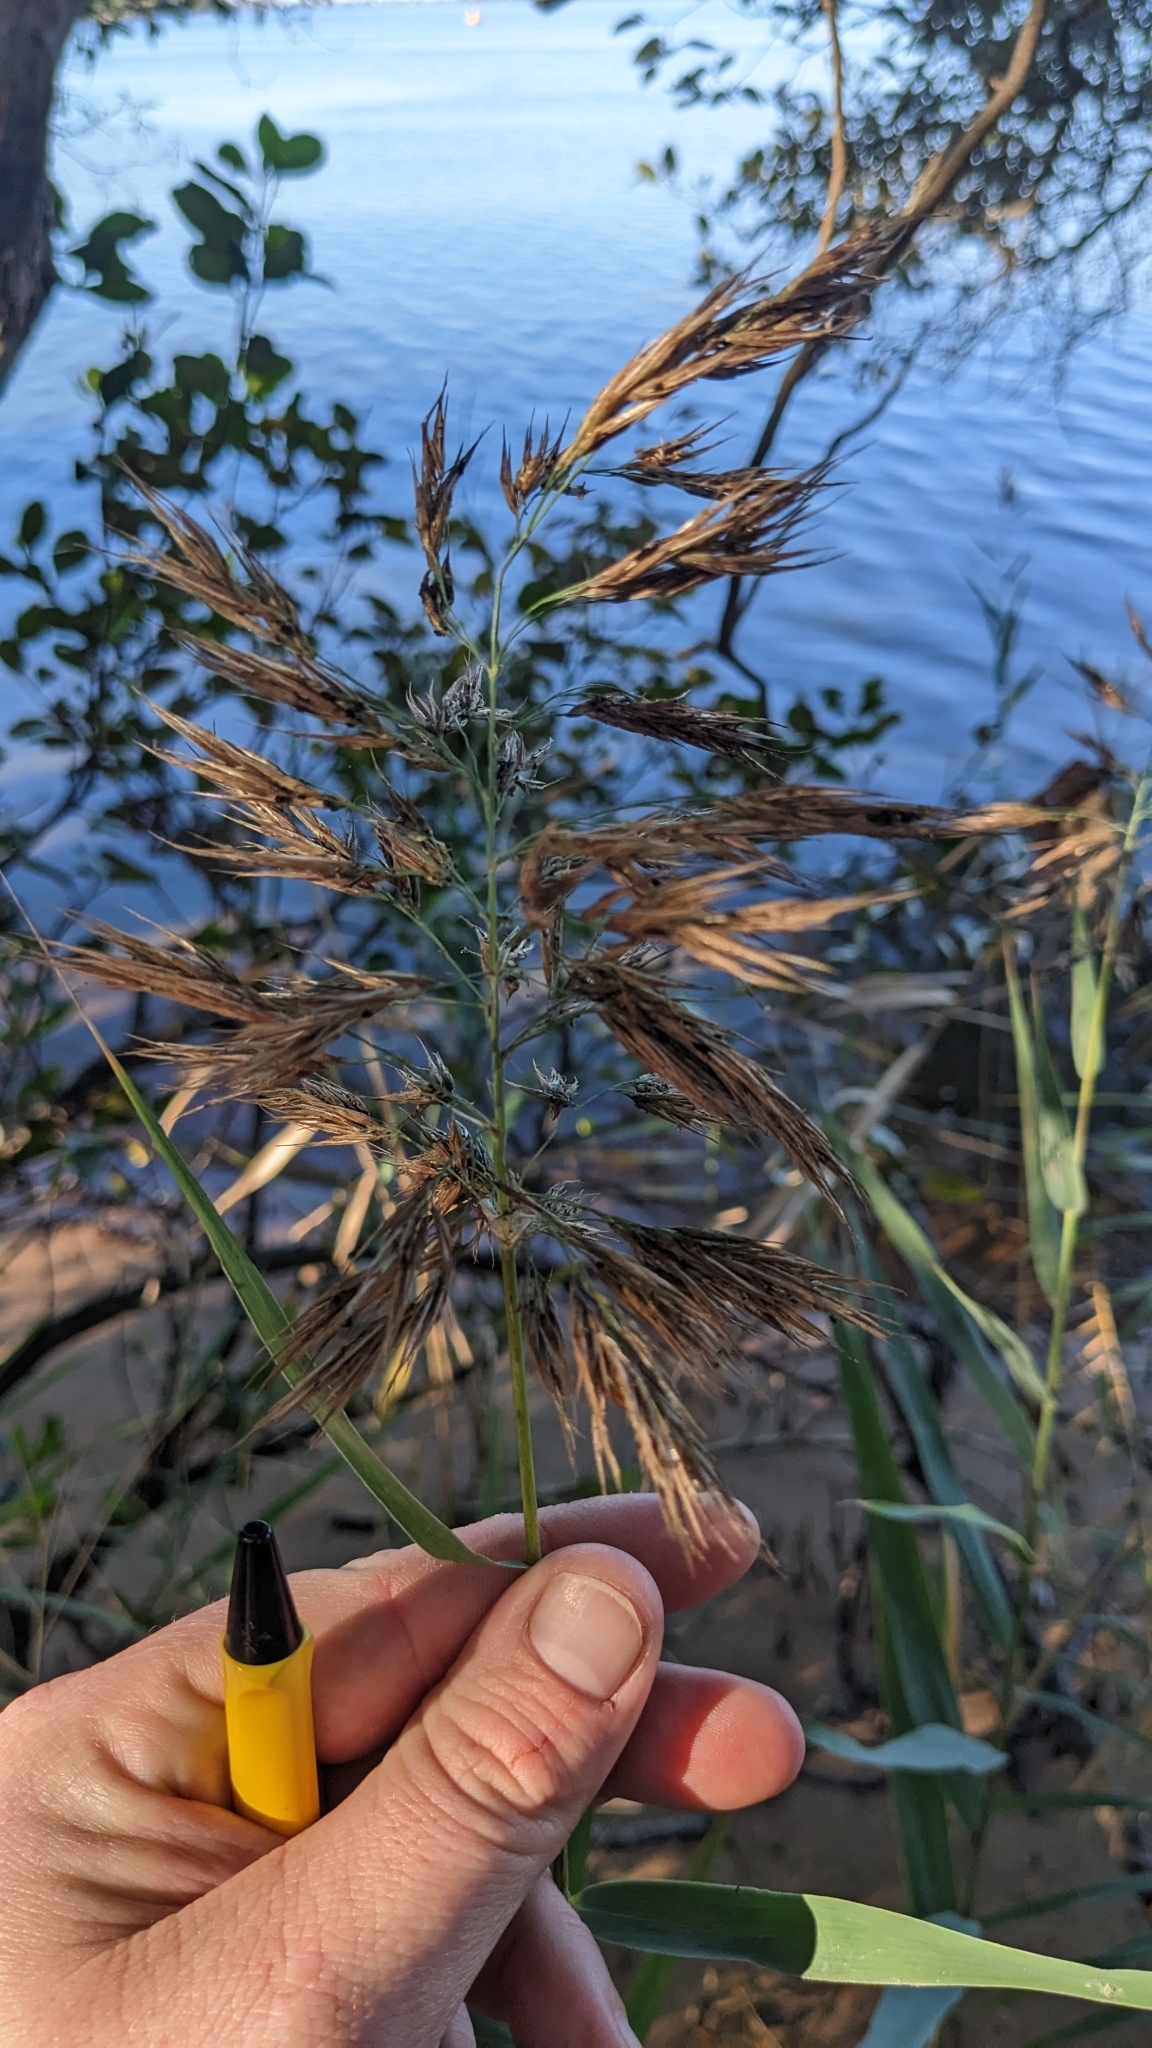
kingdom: Plantae
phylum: Tracheophyta
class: Liliopsida
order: Poales
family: Poaceae
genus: Phragmites
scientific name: Phragmites australis
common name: Common reed
